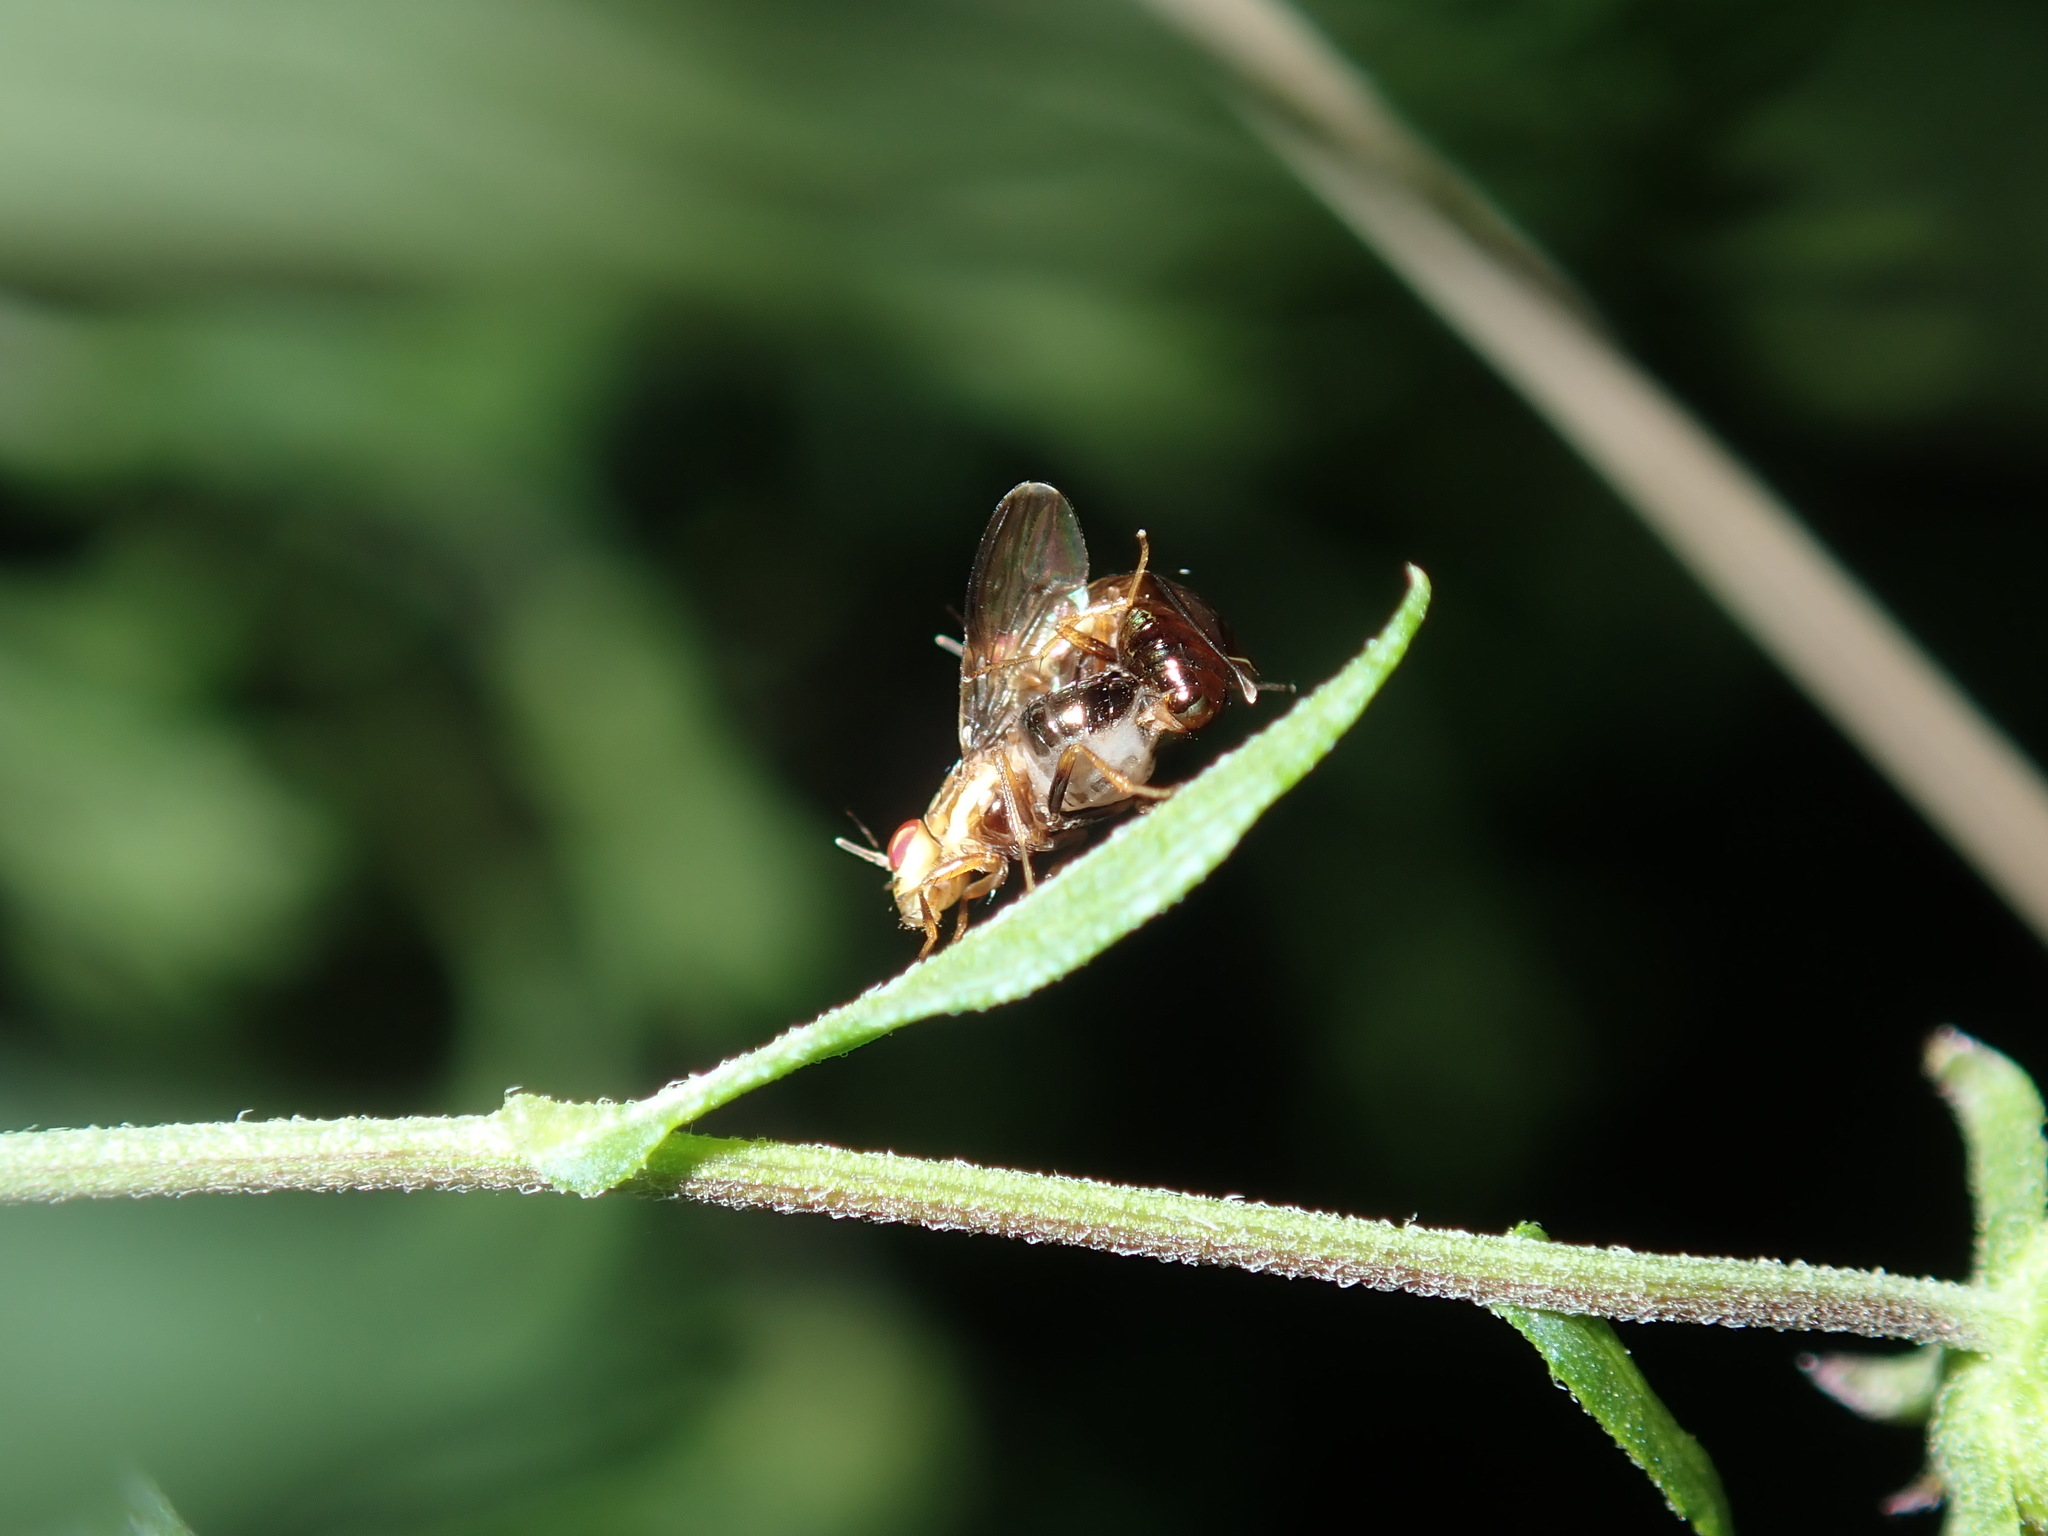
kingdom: Animalia
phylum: Arthropoda
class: Insecta
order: Diptera
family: Lauxaniidae
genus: Steganopsis
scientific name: Steganopsis melanogaster
